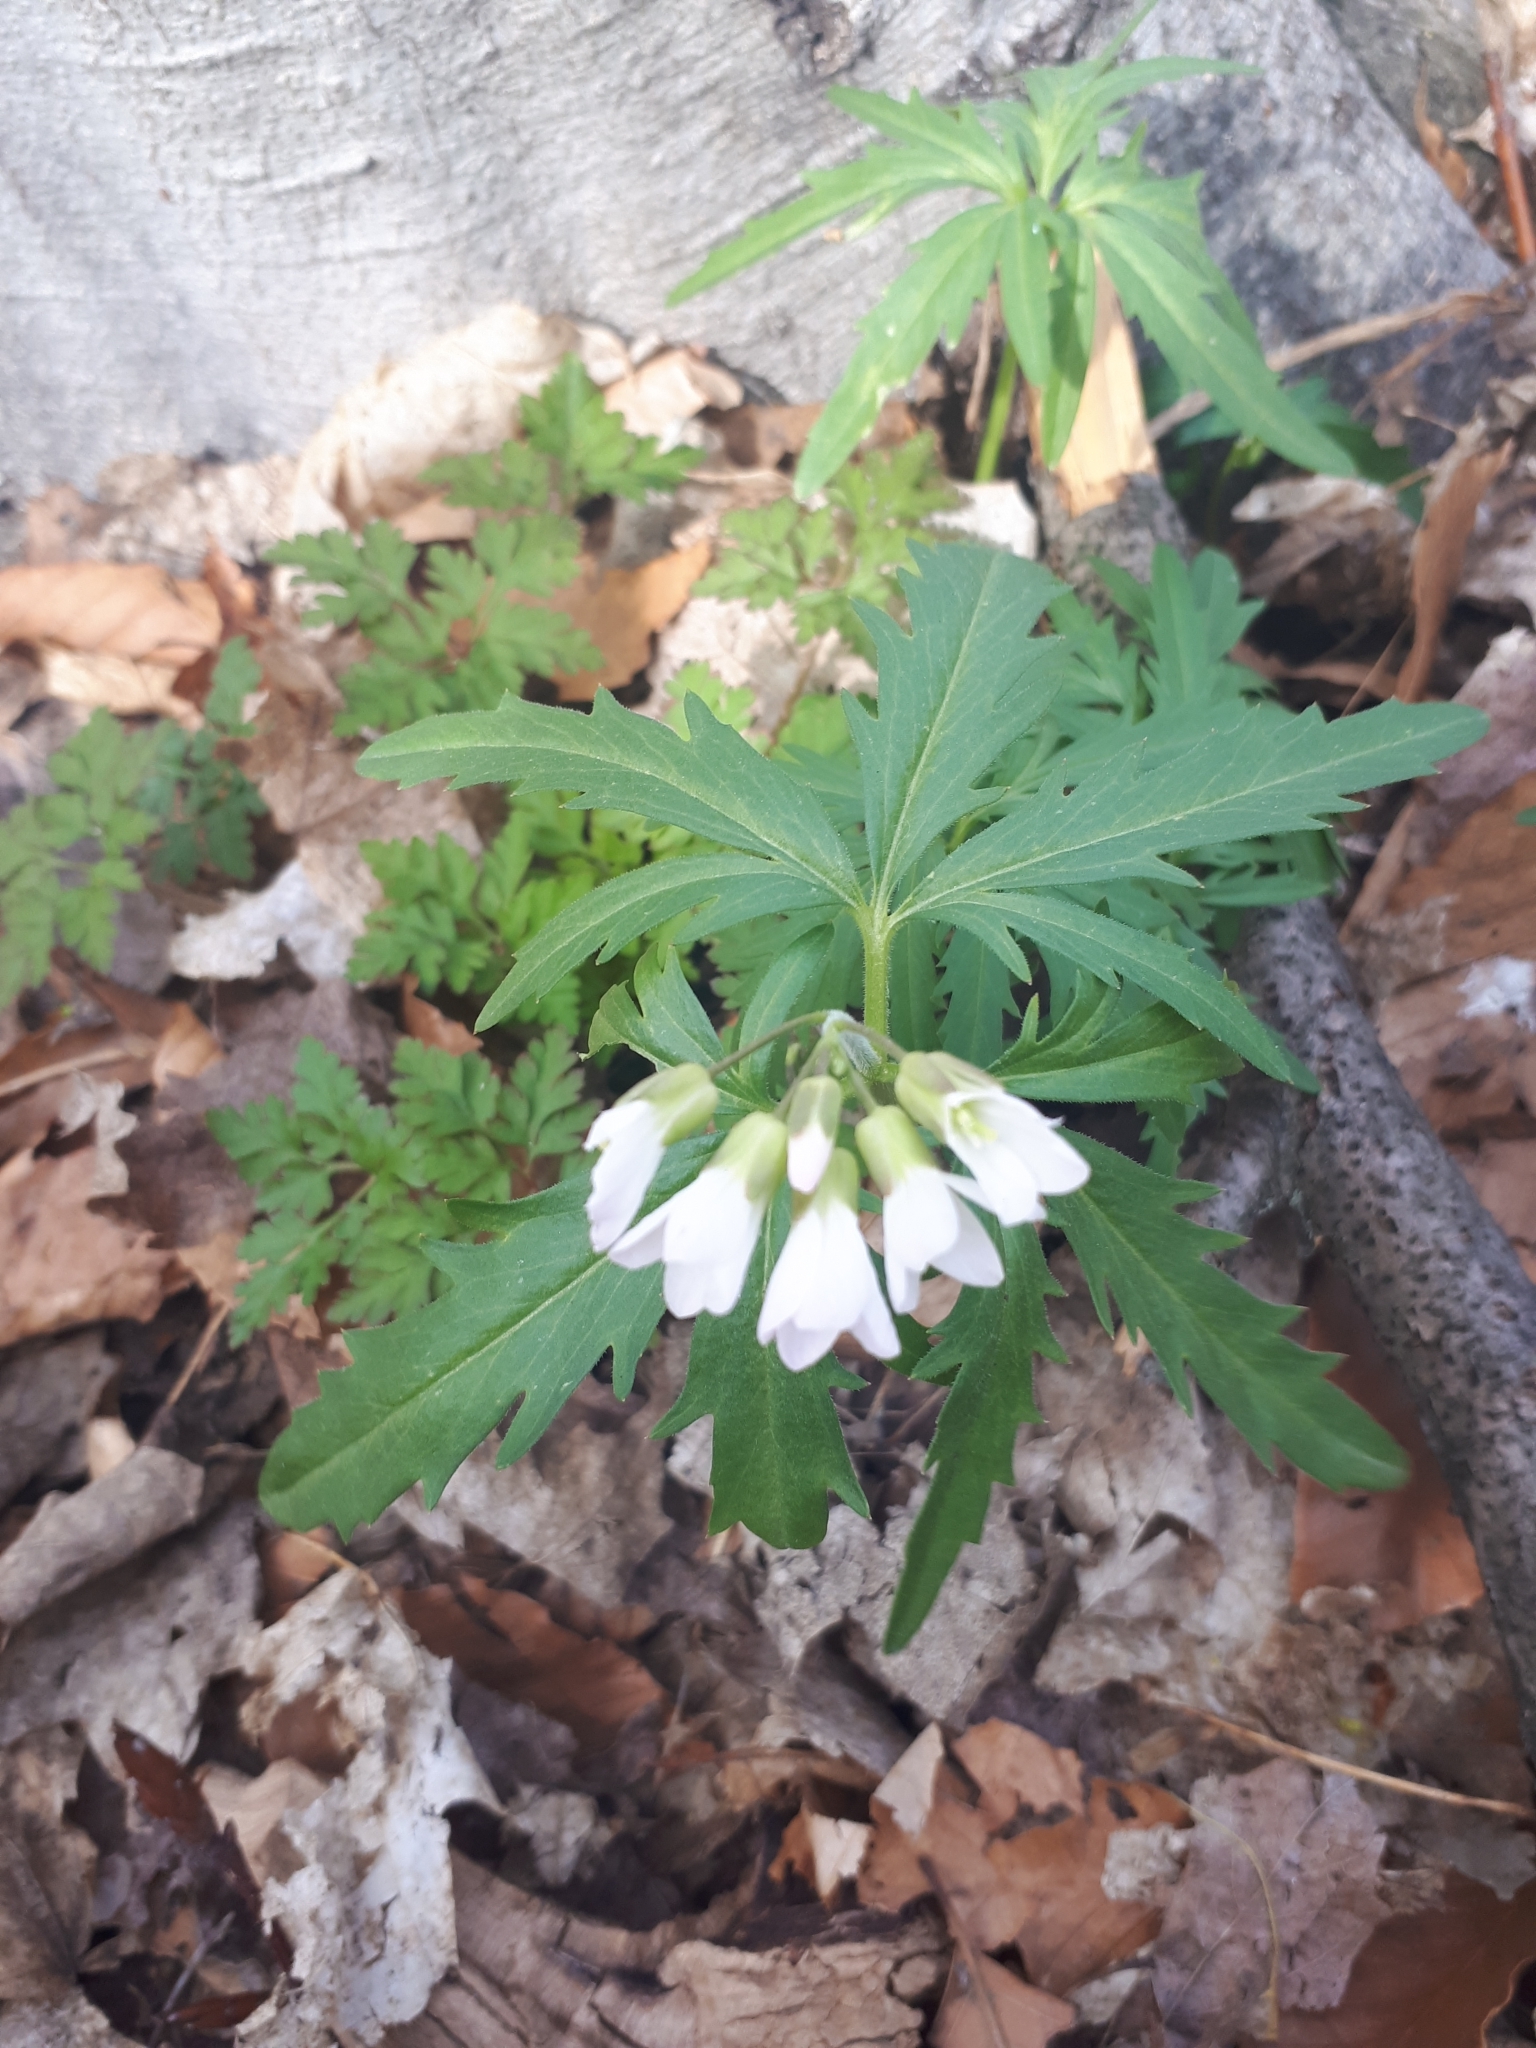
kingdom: Plantae
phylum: Tracheophyta
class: Magnoliopsida
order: Brassicales
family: Brassicaceae
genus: Cardamine
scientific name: Cardamine concatenata
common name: Cut-leaf toothcup
